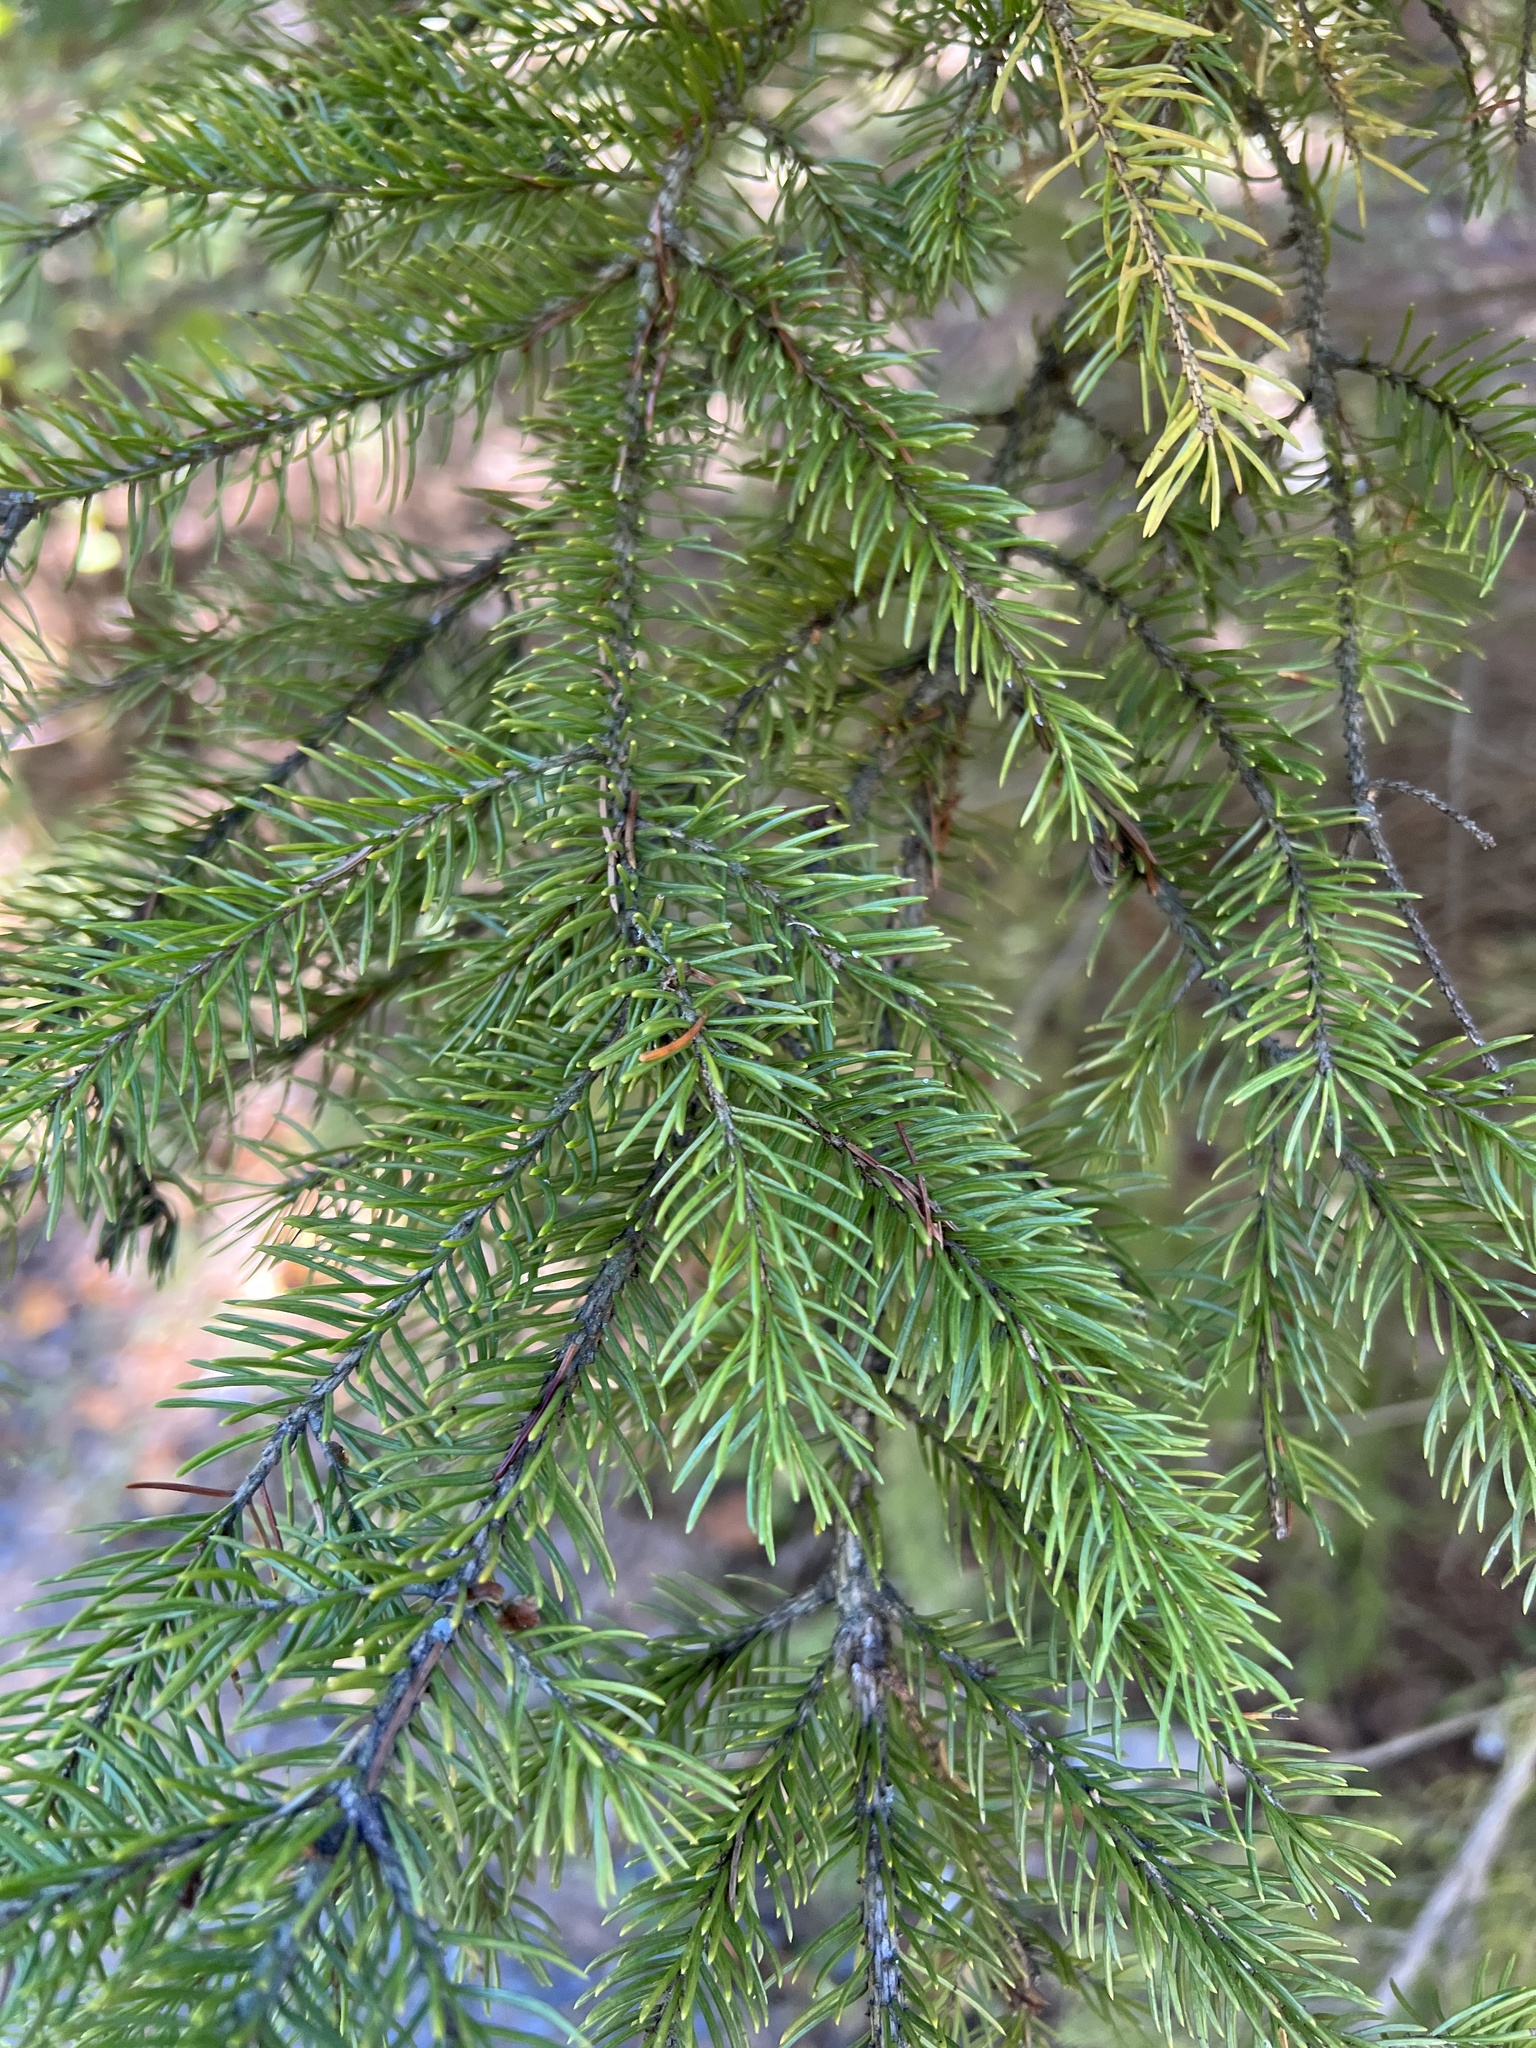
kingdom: Plantae
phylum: Tracheophyta
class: Pinopsida
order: Pinales
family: Pinaceae
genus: Picea
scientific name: Picea glauca
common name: White spruce
